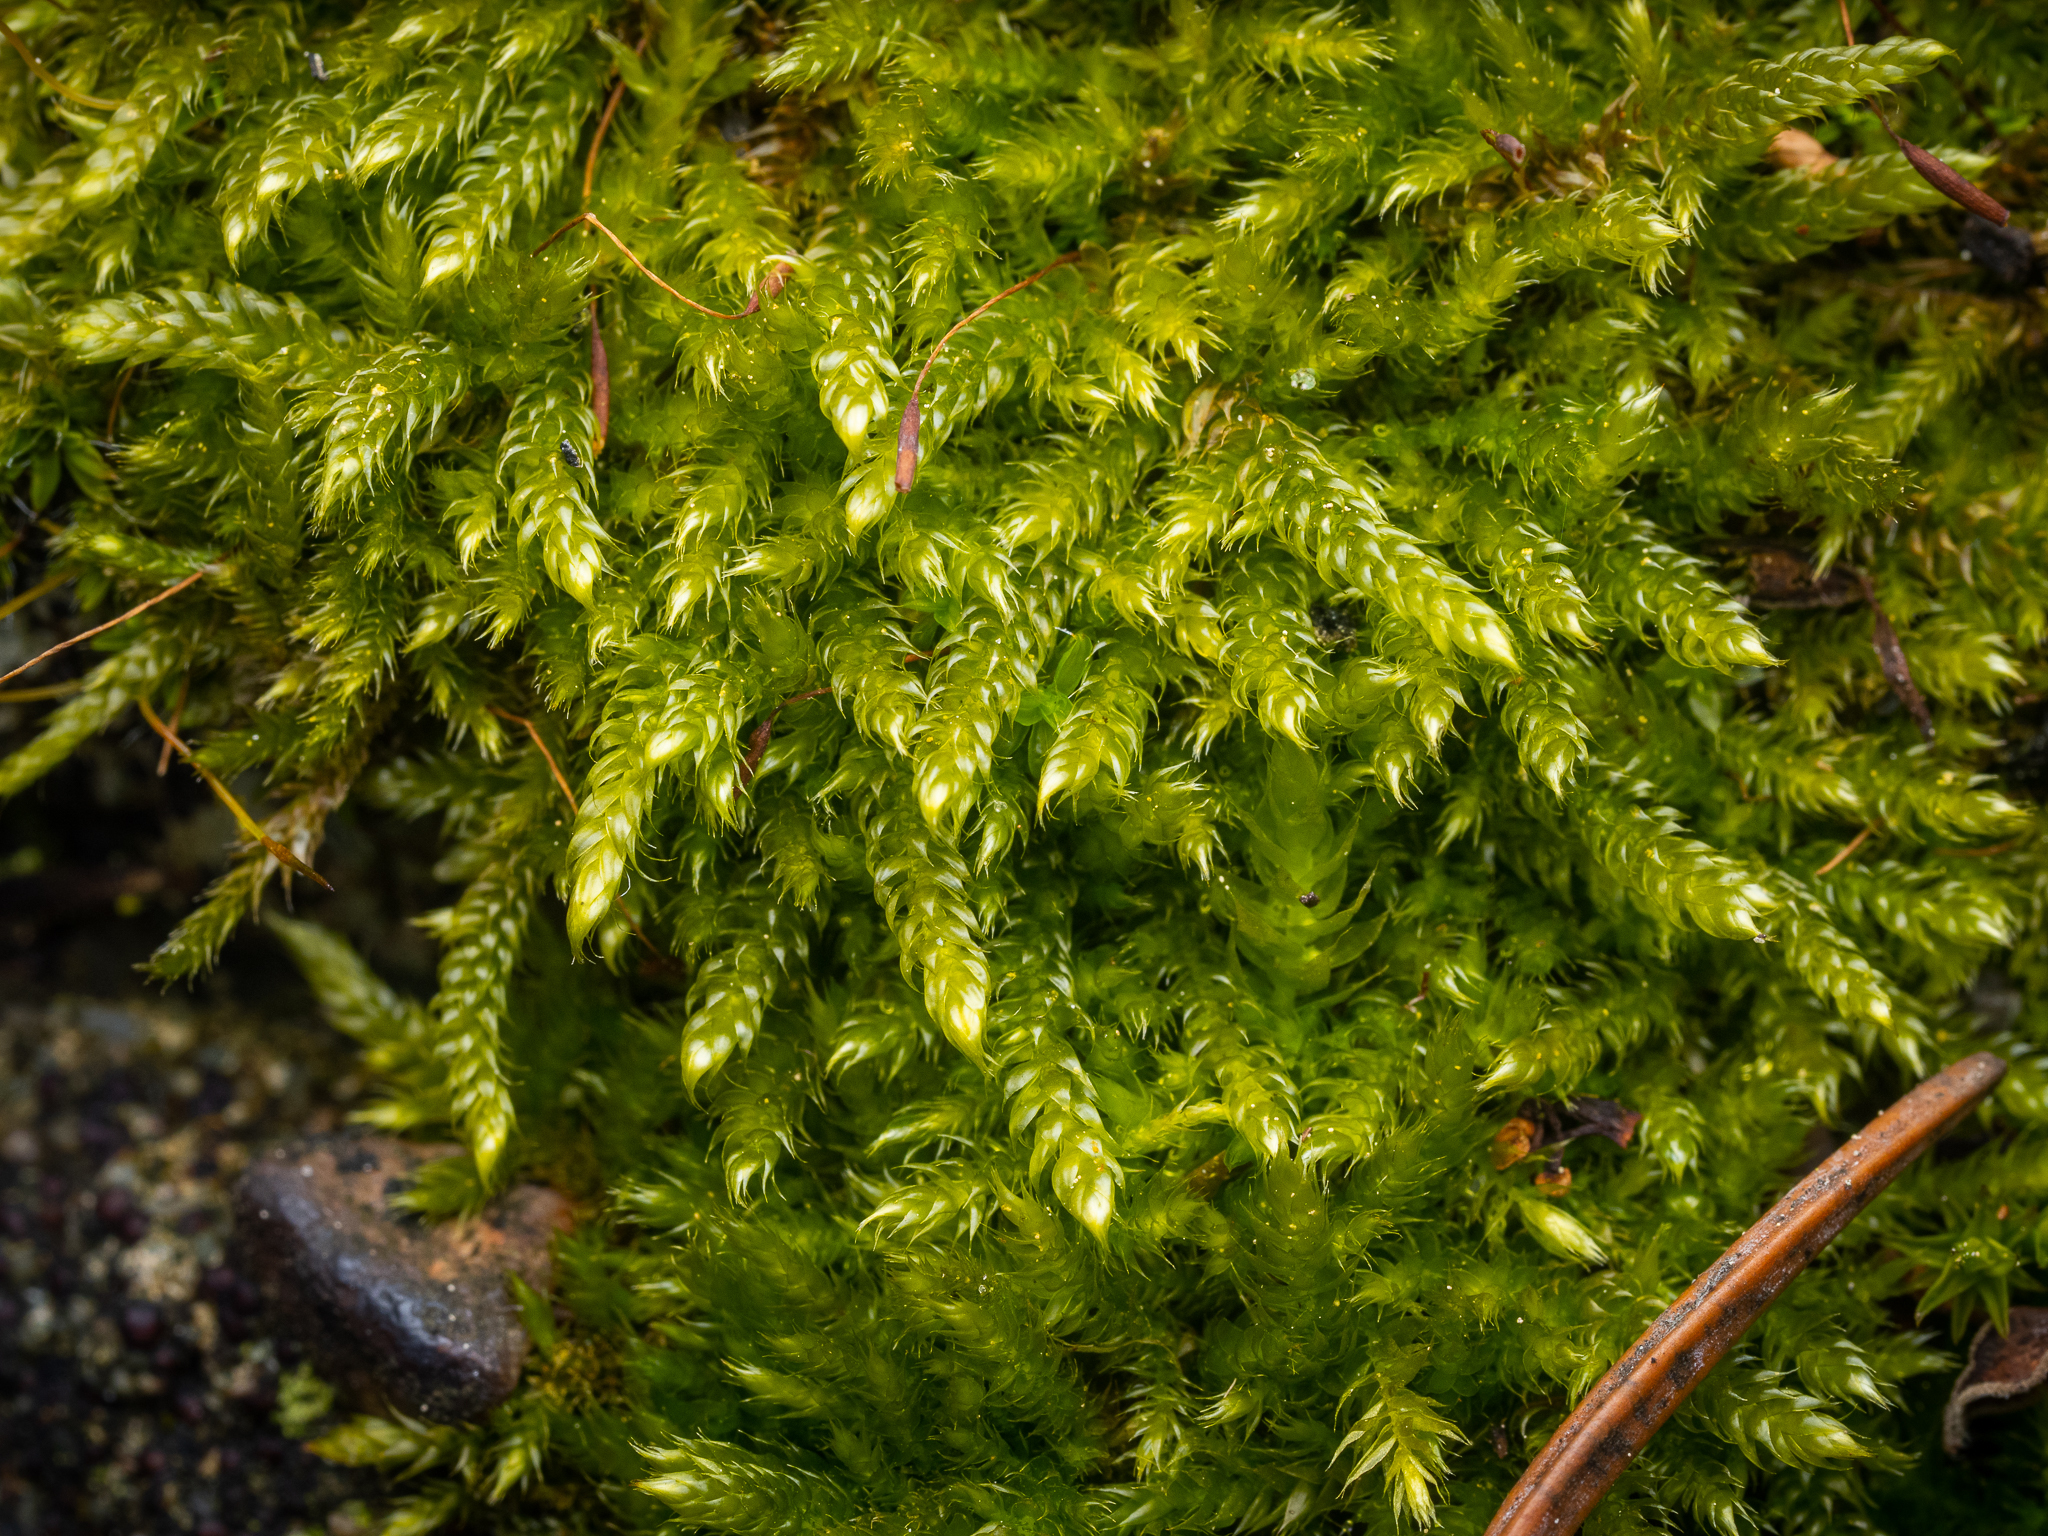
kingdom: Plantae
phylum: Bryophyta
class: Bryopsida
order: Hypnales
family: Hypnaceae
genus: Hypnum
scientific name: Hypnum cupressiforme
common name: Cypress-leaved plait-moss
